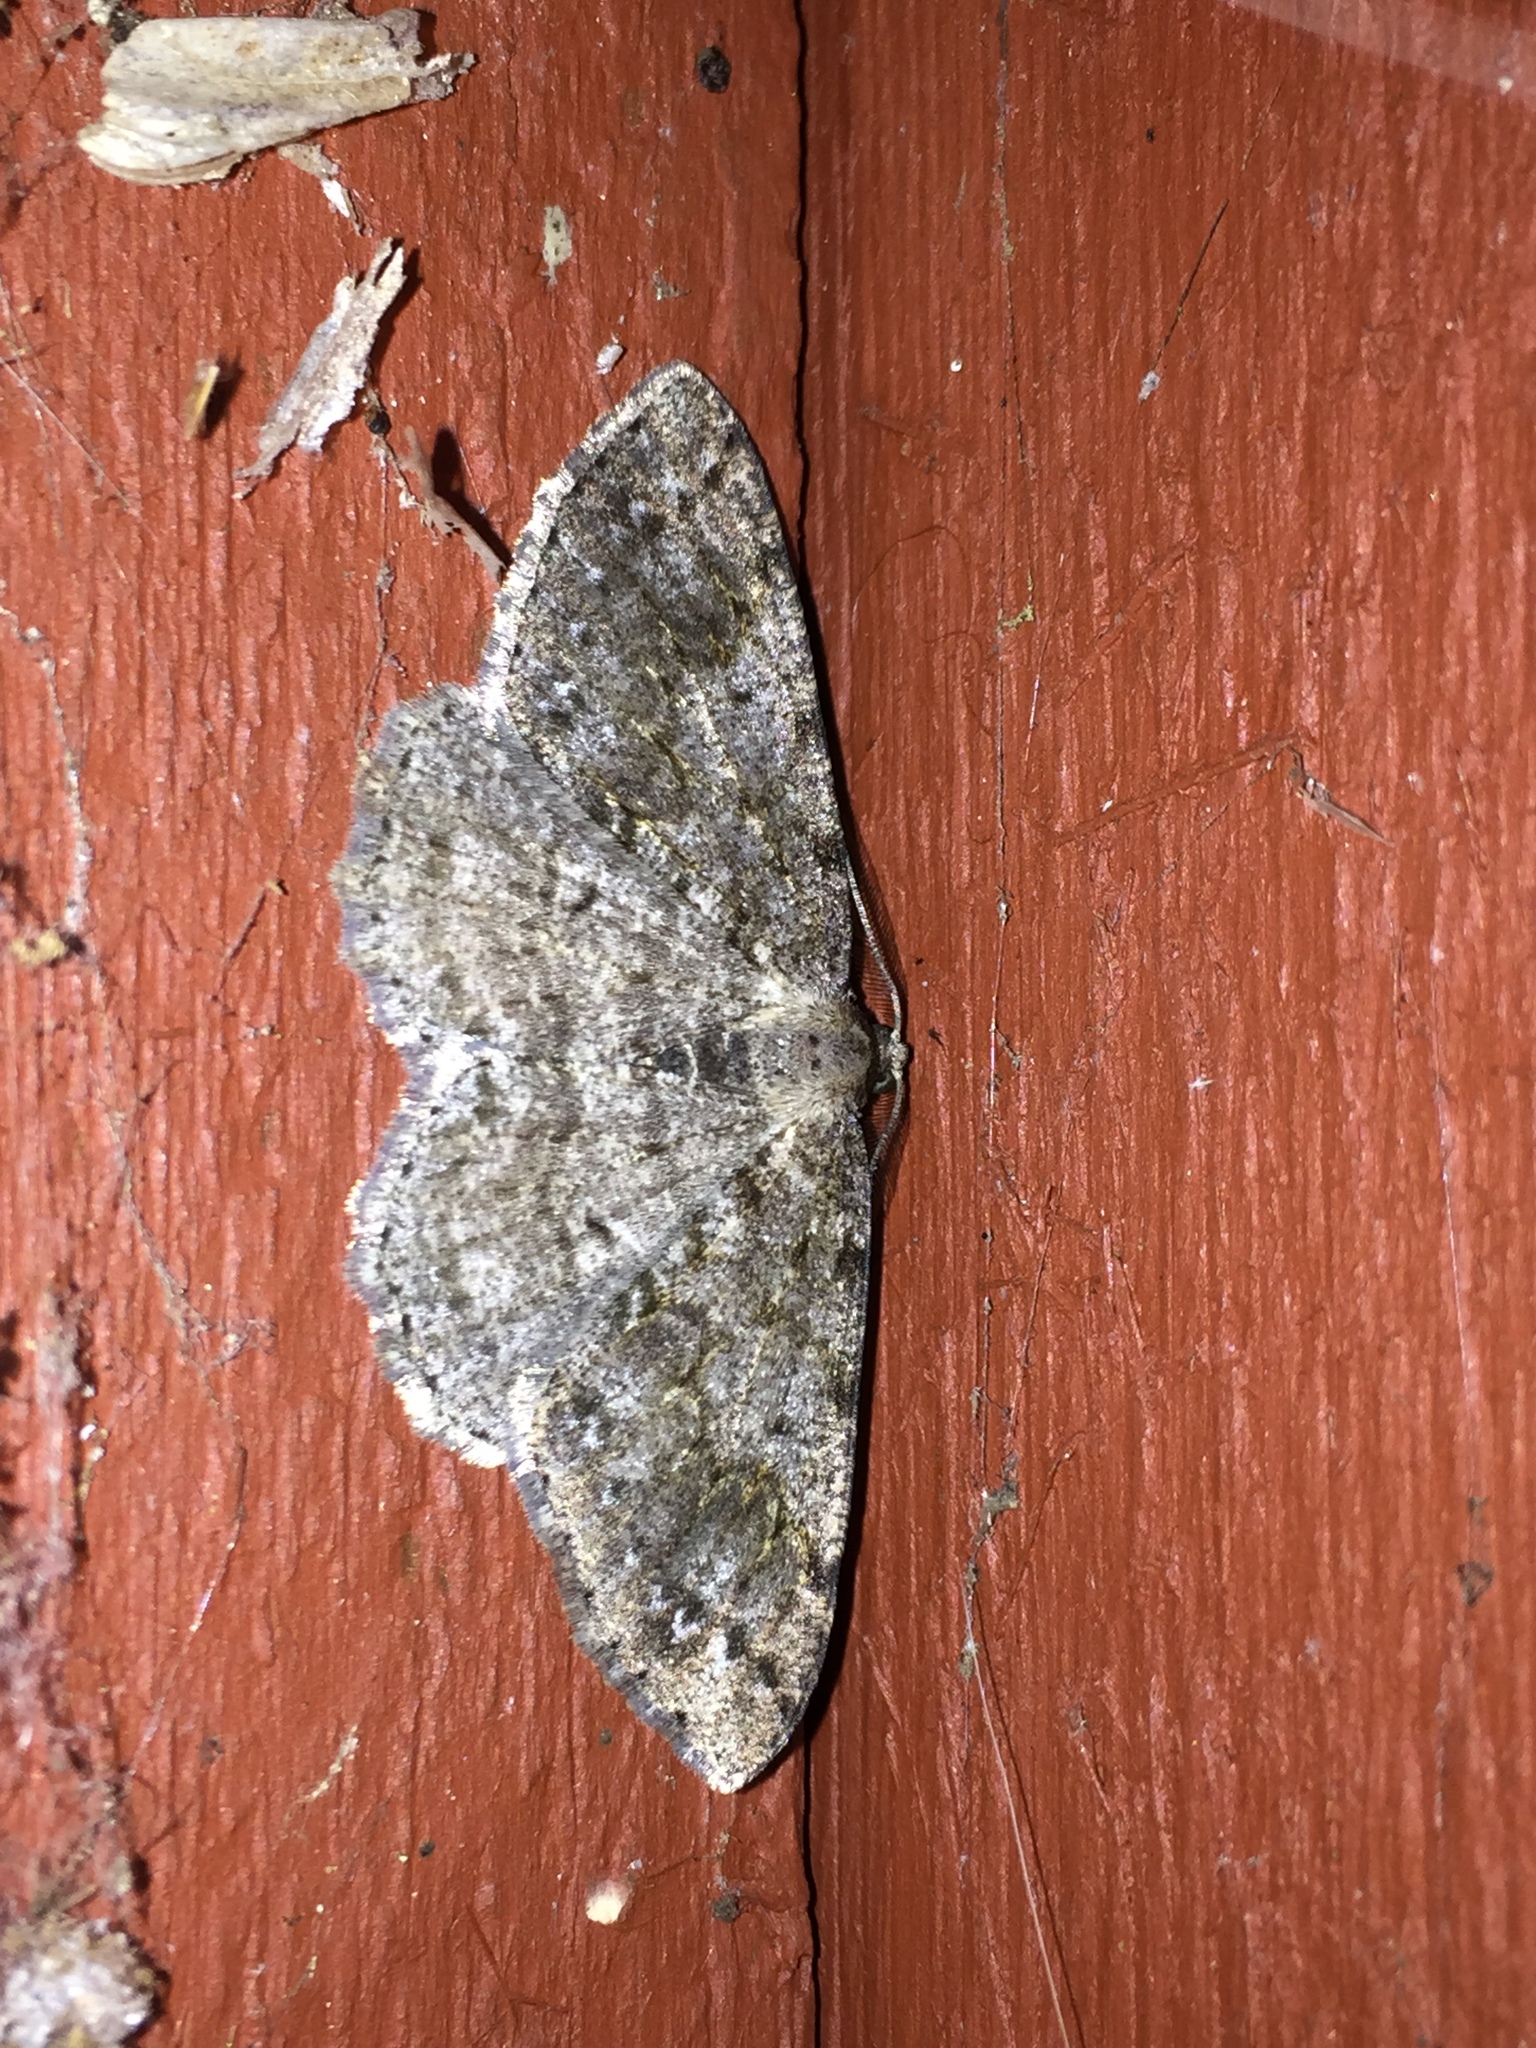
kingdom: Animalia
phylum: Arthropoda
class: Insecta
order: Lepidoptera
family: Geometridae
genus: Melanolophia
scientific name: Melanolophia imitata
